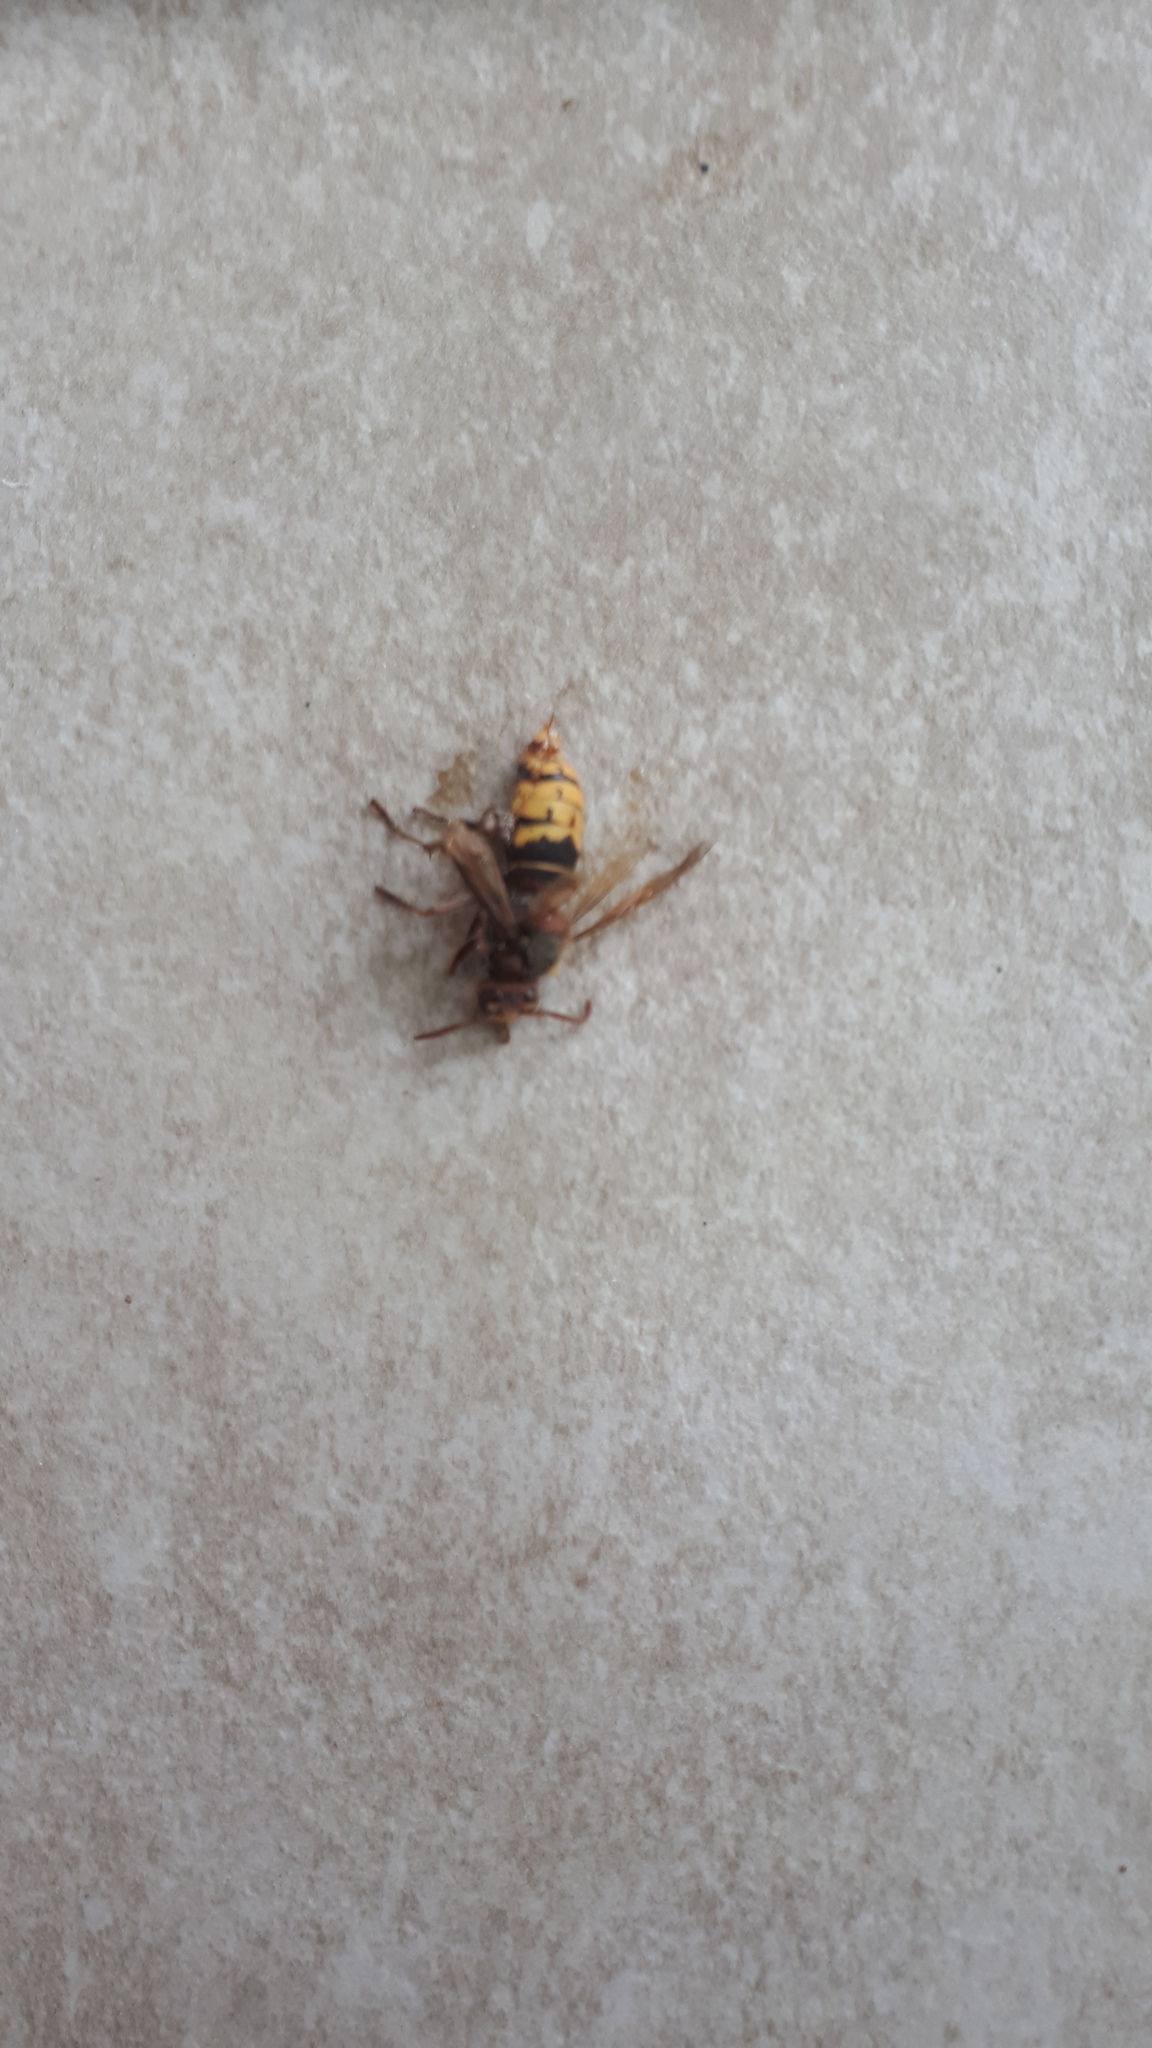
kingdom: Animalia
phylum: Arthropoda
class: Insecta
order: Hymenoptera
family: Vespidae
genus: Vespa
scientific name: Vespa crabro
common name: Hornet
